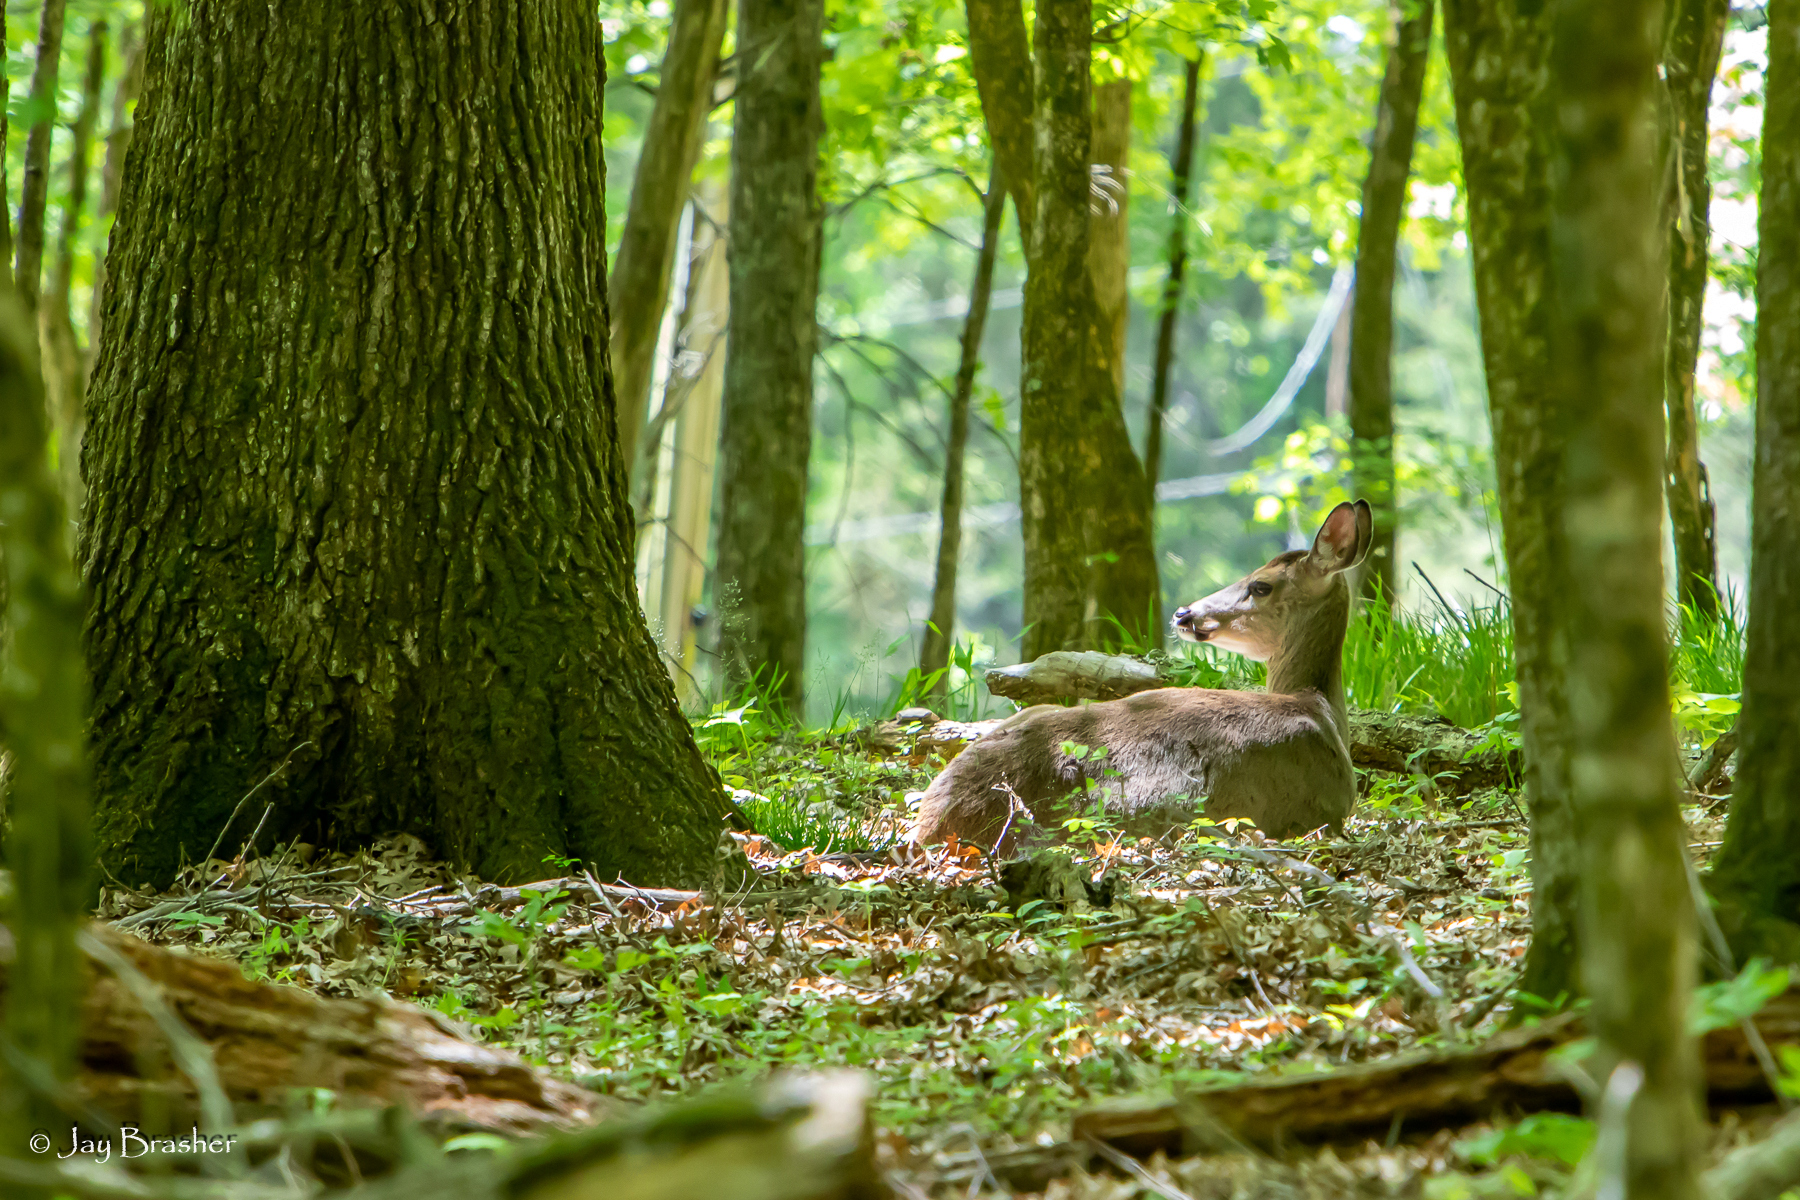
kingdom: Animalia
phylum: Chordata
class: Mammalia
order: Artiodactyla
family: Cervidae
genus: Odocoileus
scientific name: Odocoileus virginianus
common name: White-tailed deer
